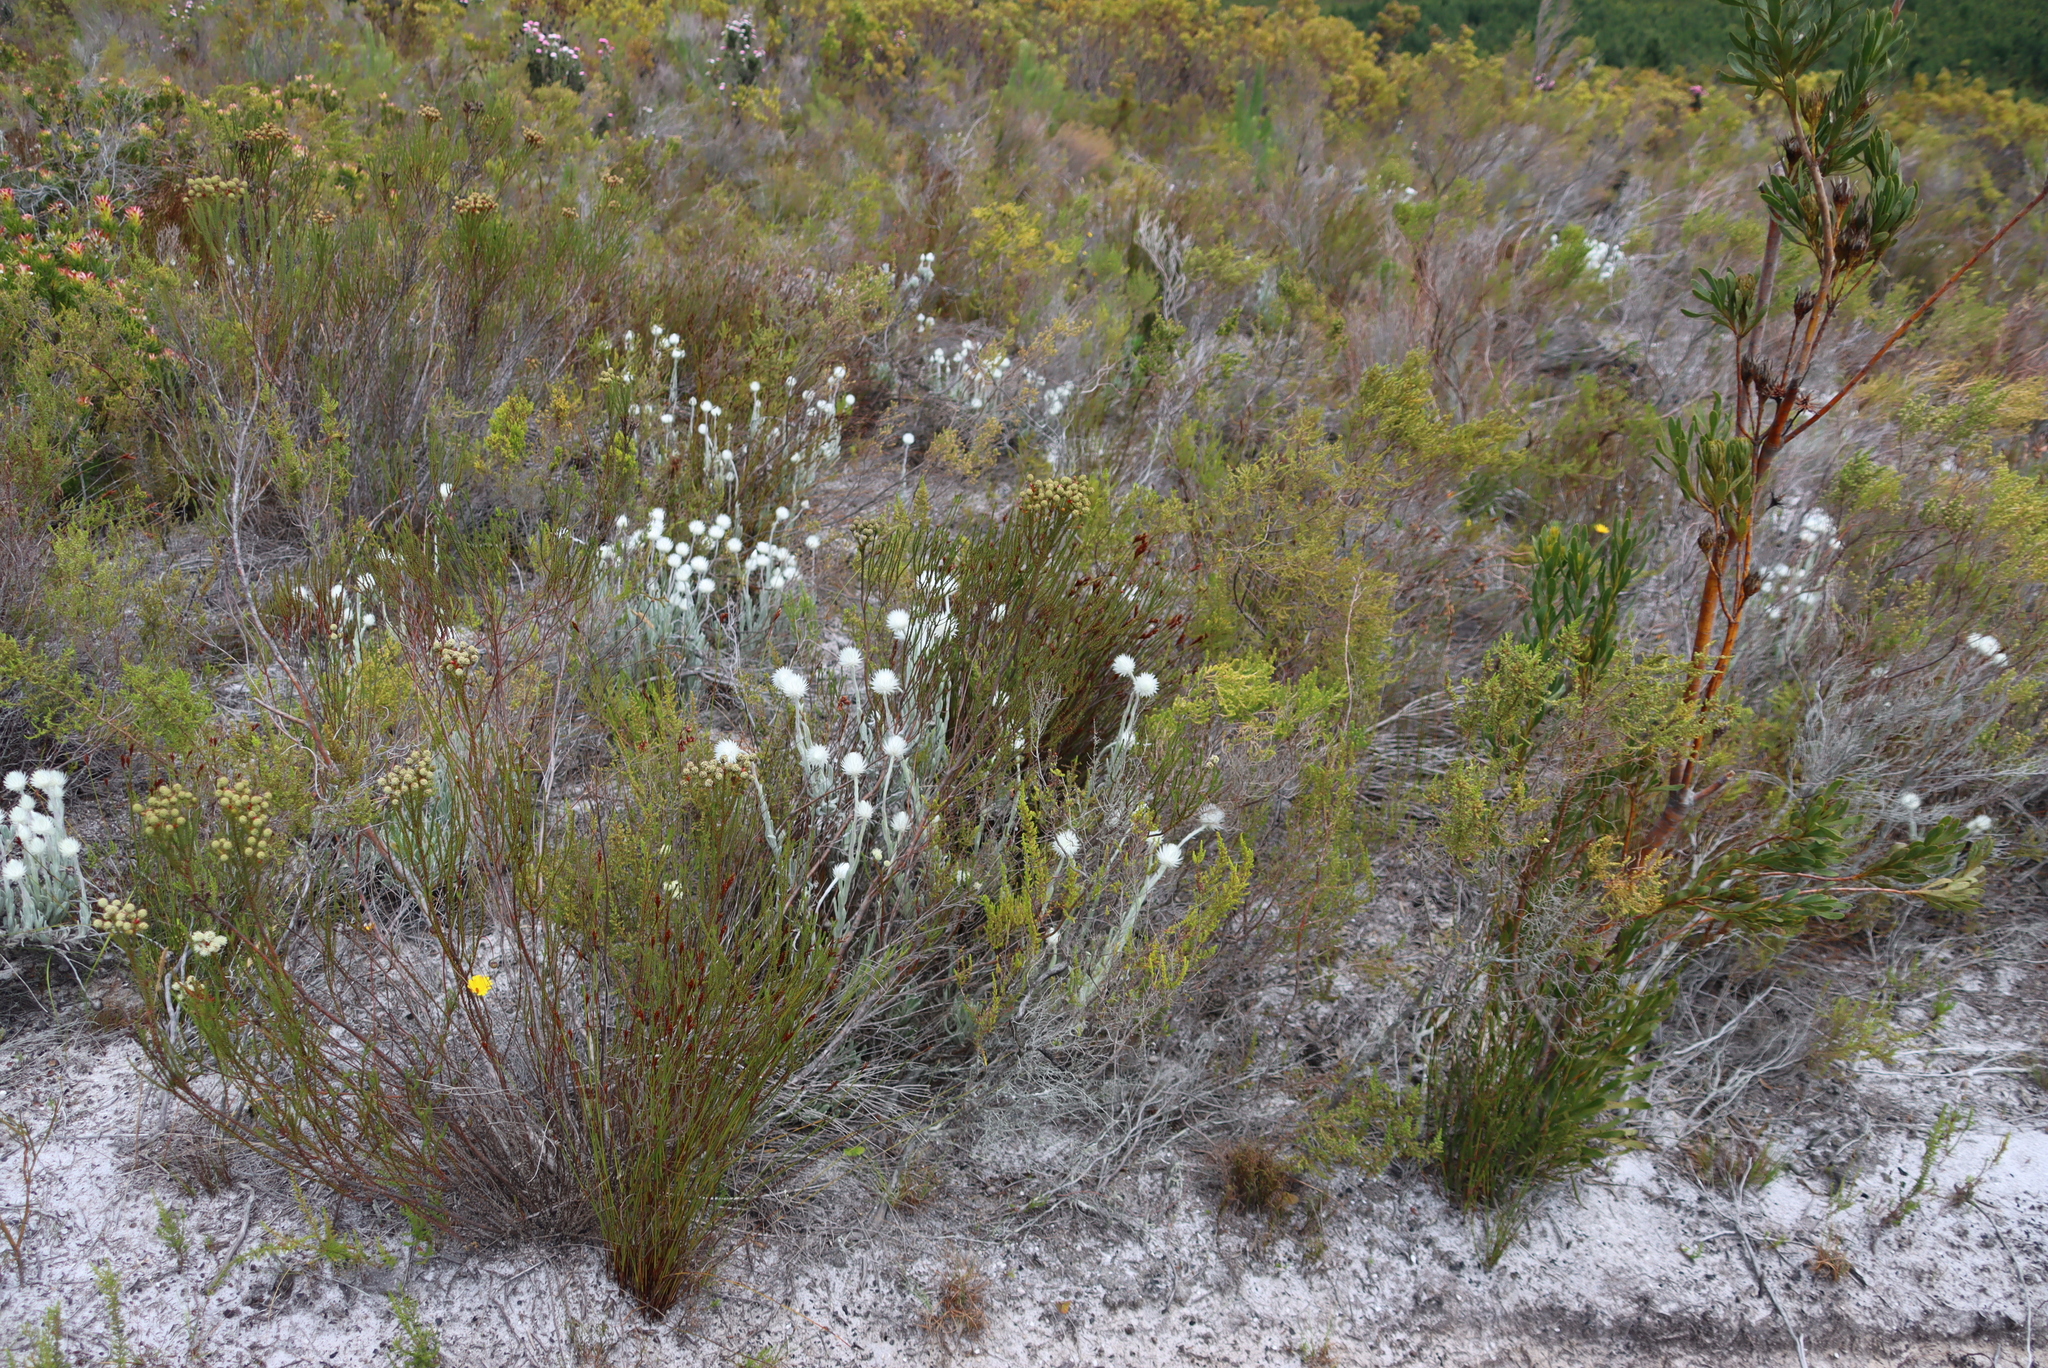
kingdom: Plantae
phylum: Tracheophyta
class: Magnoliopsida
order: Asterales
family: Asteraceae
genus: Syncarpha
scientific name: Syncarpha vestita
